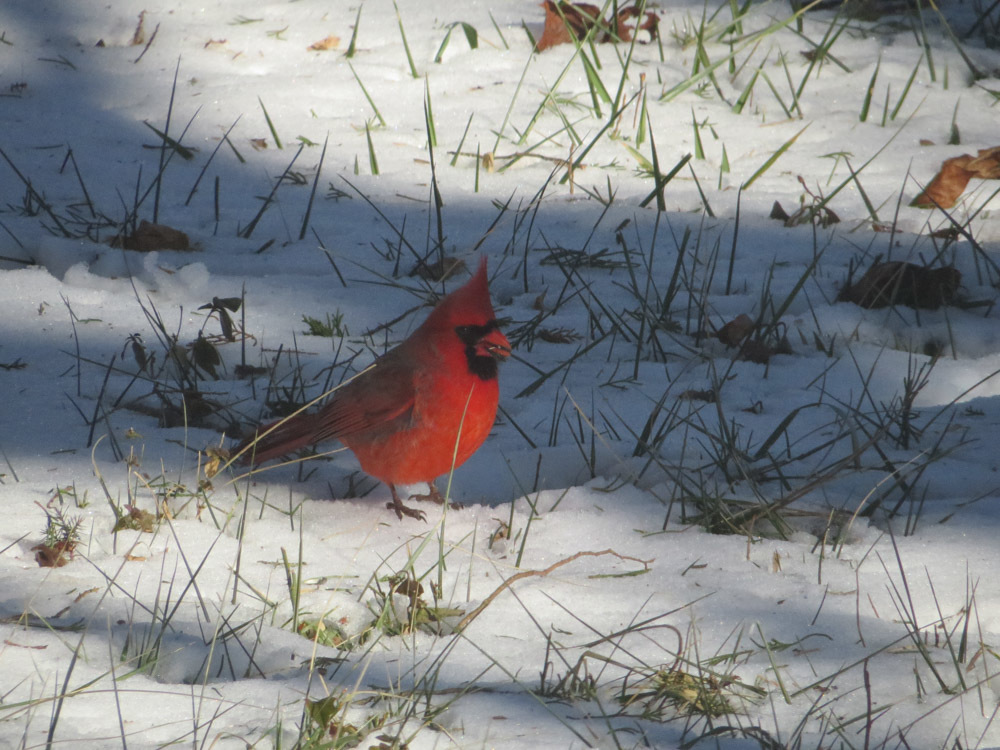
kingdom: Animalia
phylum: Chordata
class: Aves
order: Passeriformes
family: Cardinalidae
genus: Cardinalis
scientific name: Cardinalis cardinalis
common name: Northern cardinal
